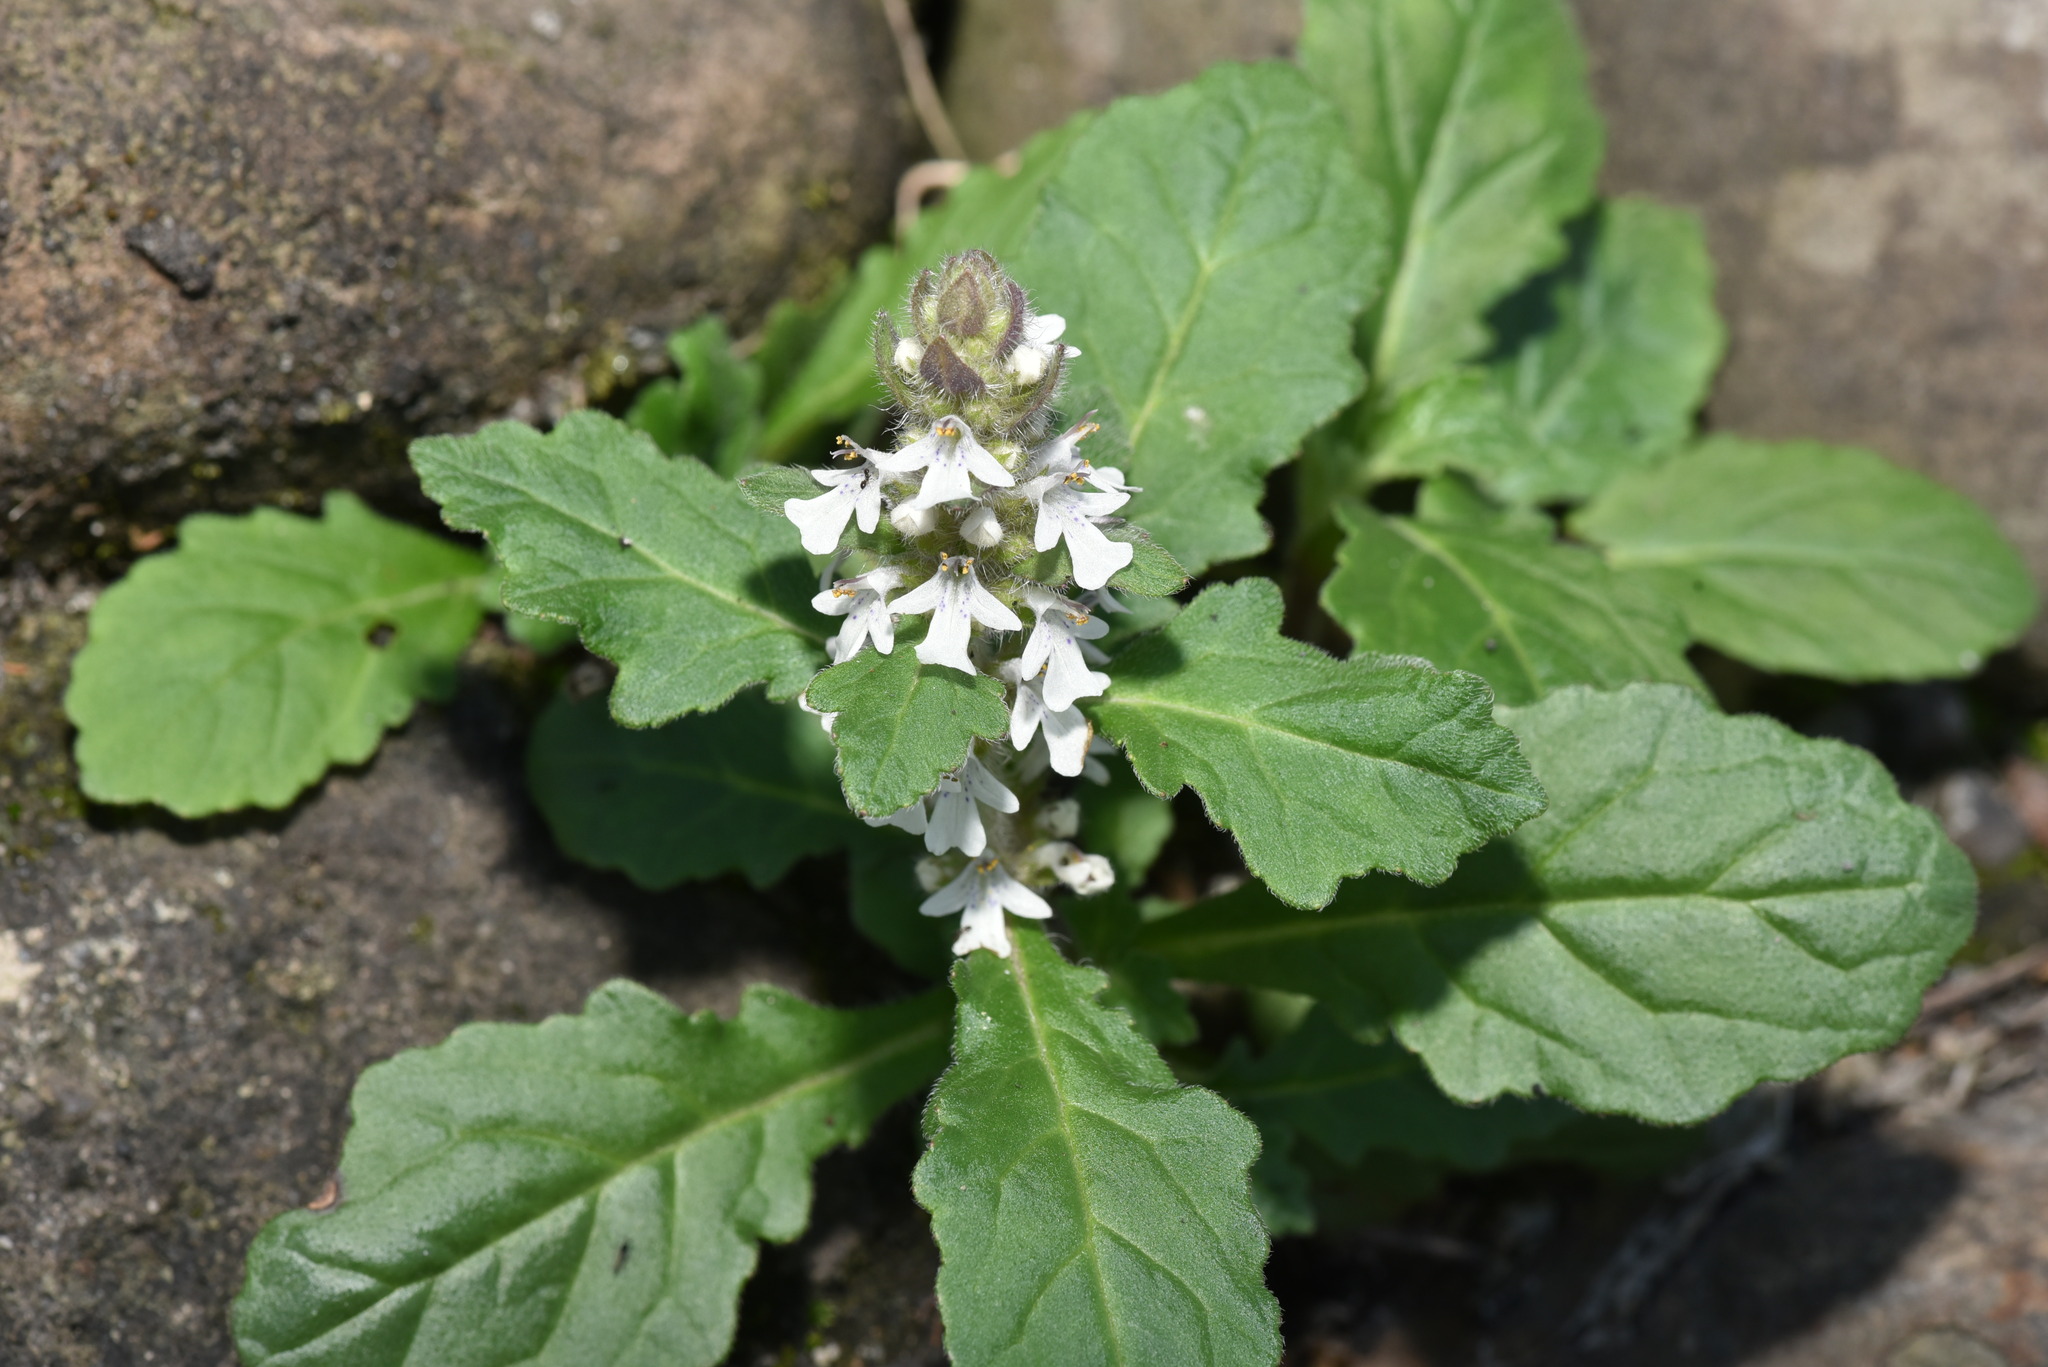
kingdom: Plantae
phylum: Tracheophyta
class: Magnoliopsida
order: Lamiales
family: Lamiaceae
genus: Ajuga
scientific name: Ajuga nipponensis
